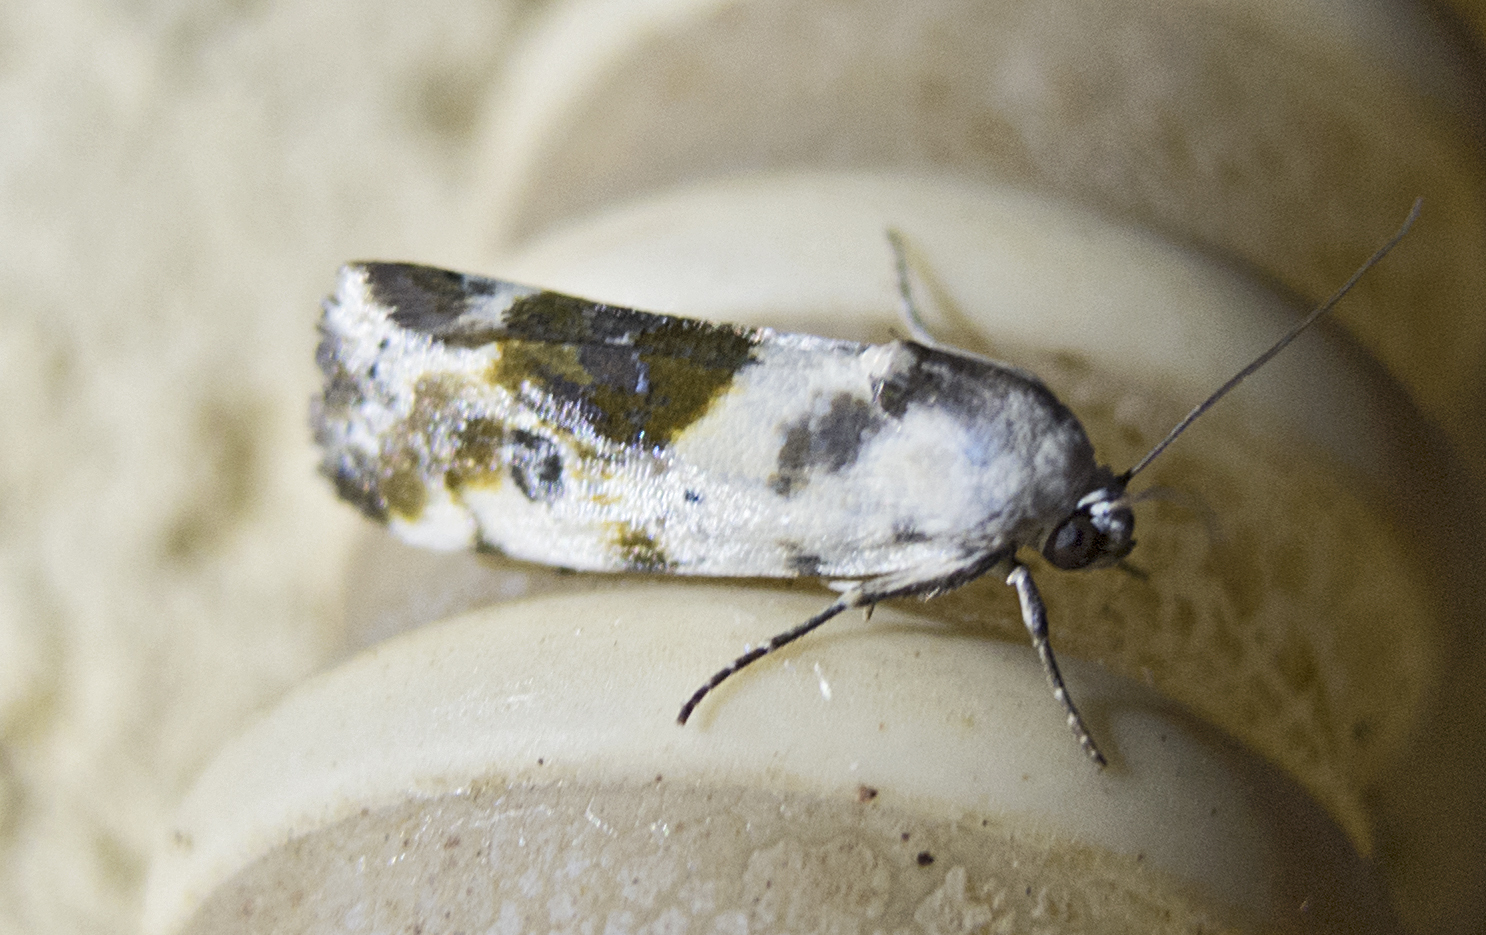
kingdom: Animalia
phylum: Arthropoda
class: Insecta
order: Lepidoptera
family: Noctuidae
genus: Acontia
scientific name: Acontia candefacta
